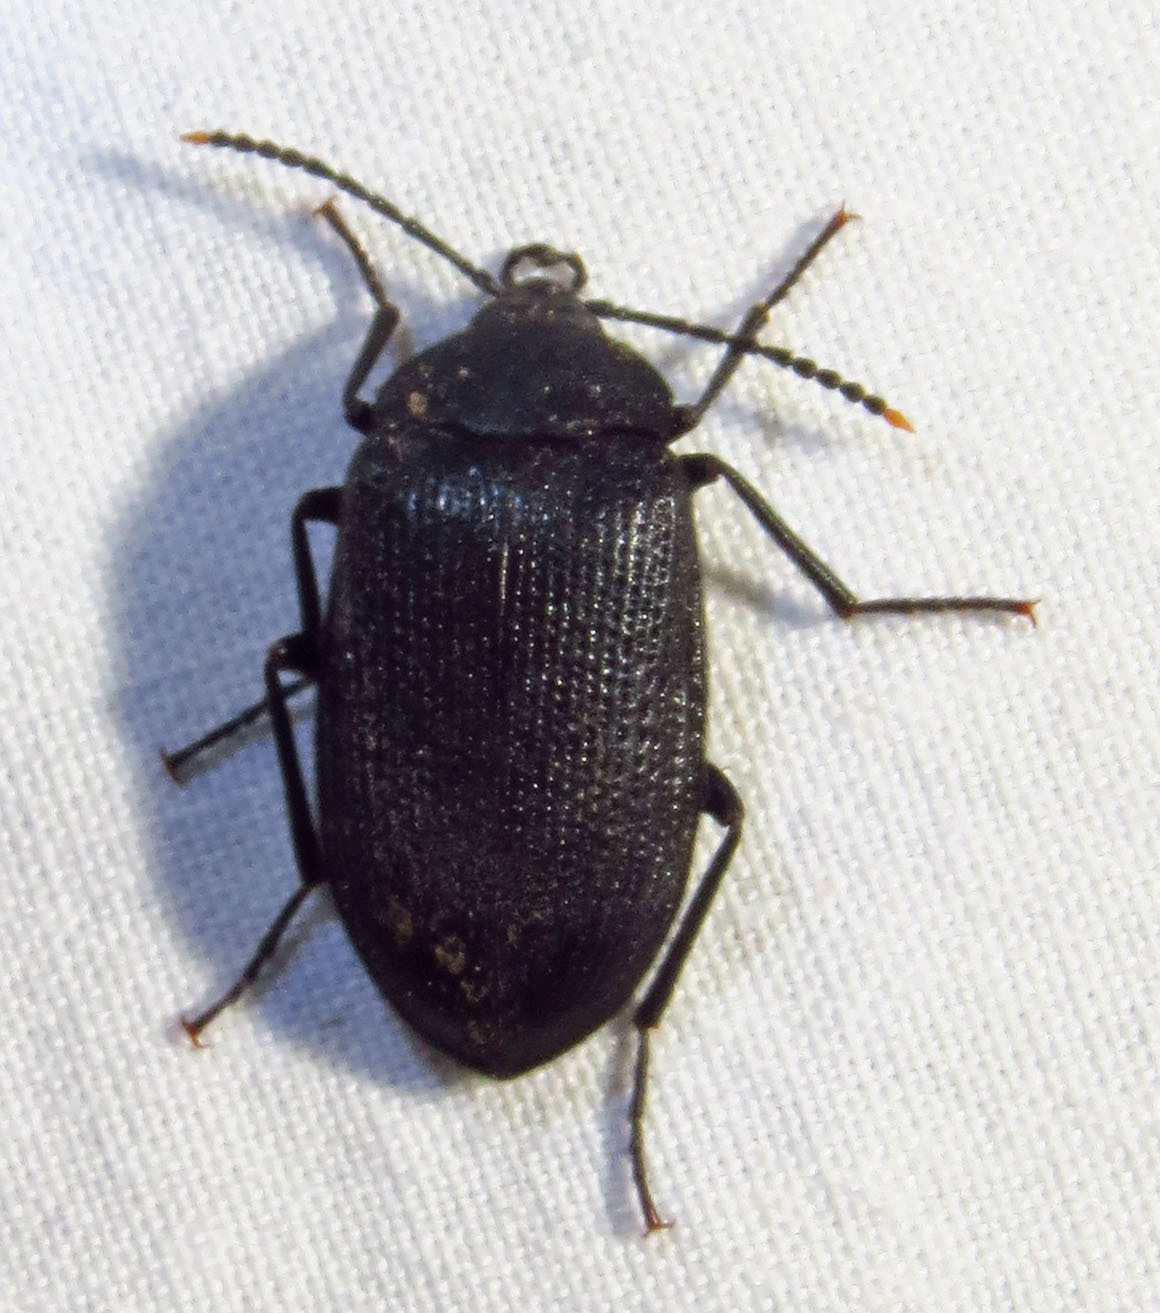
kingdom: Animalia
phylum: Arthropoda
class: Insecta
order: Coleoptera
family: Tetratomidae
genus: Penthe
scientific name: Penthe pimelia
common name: Velvety bark beetle
